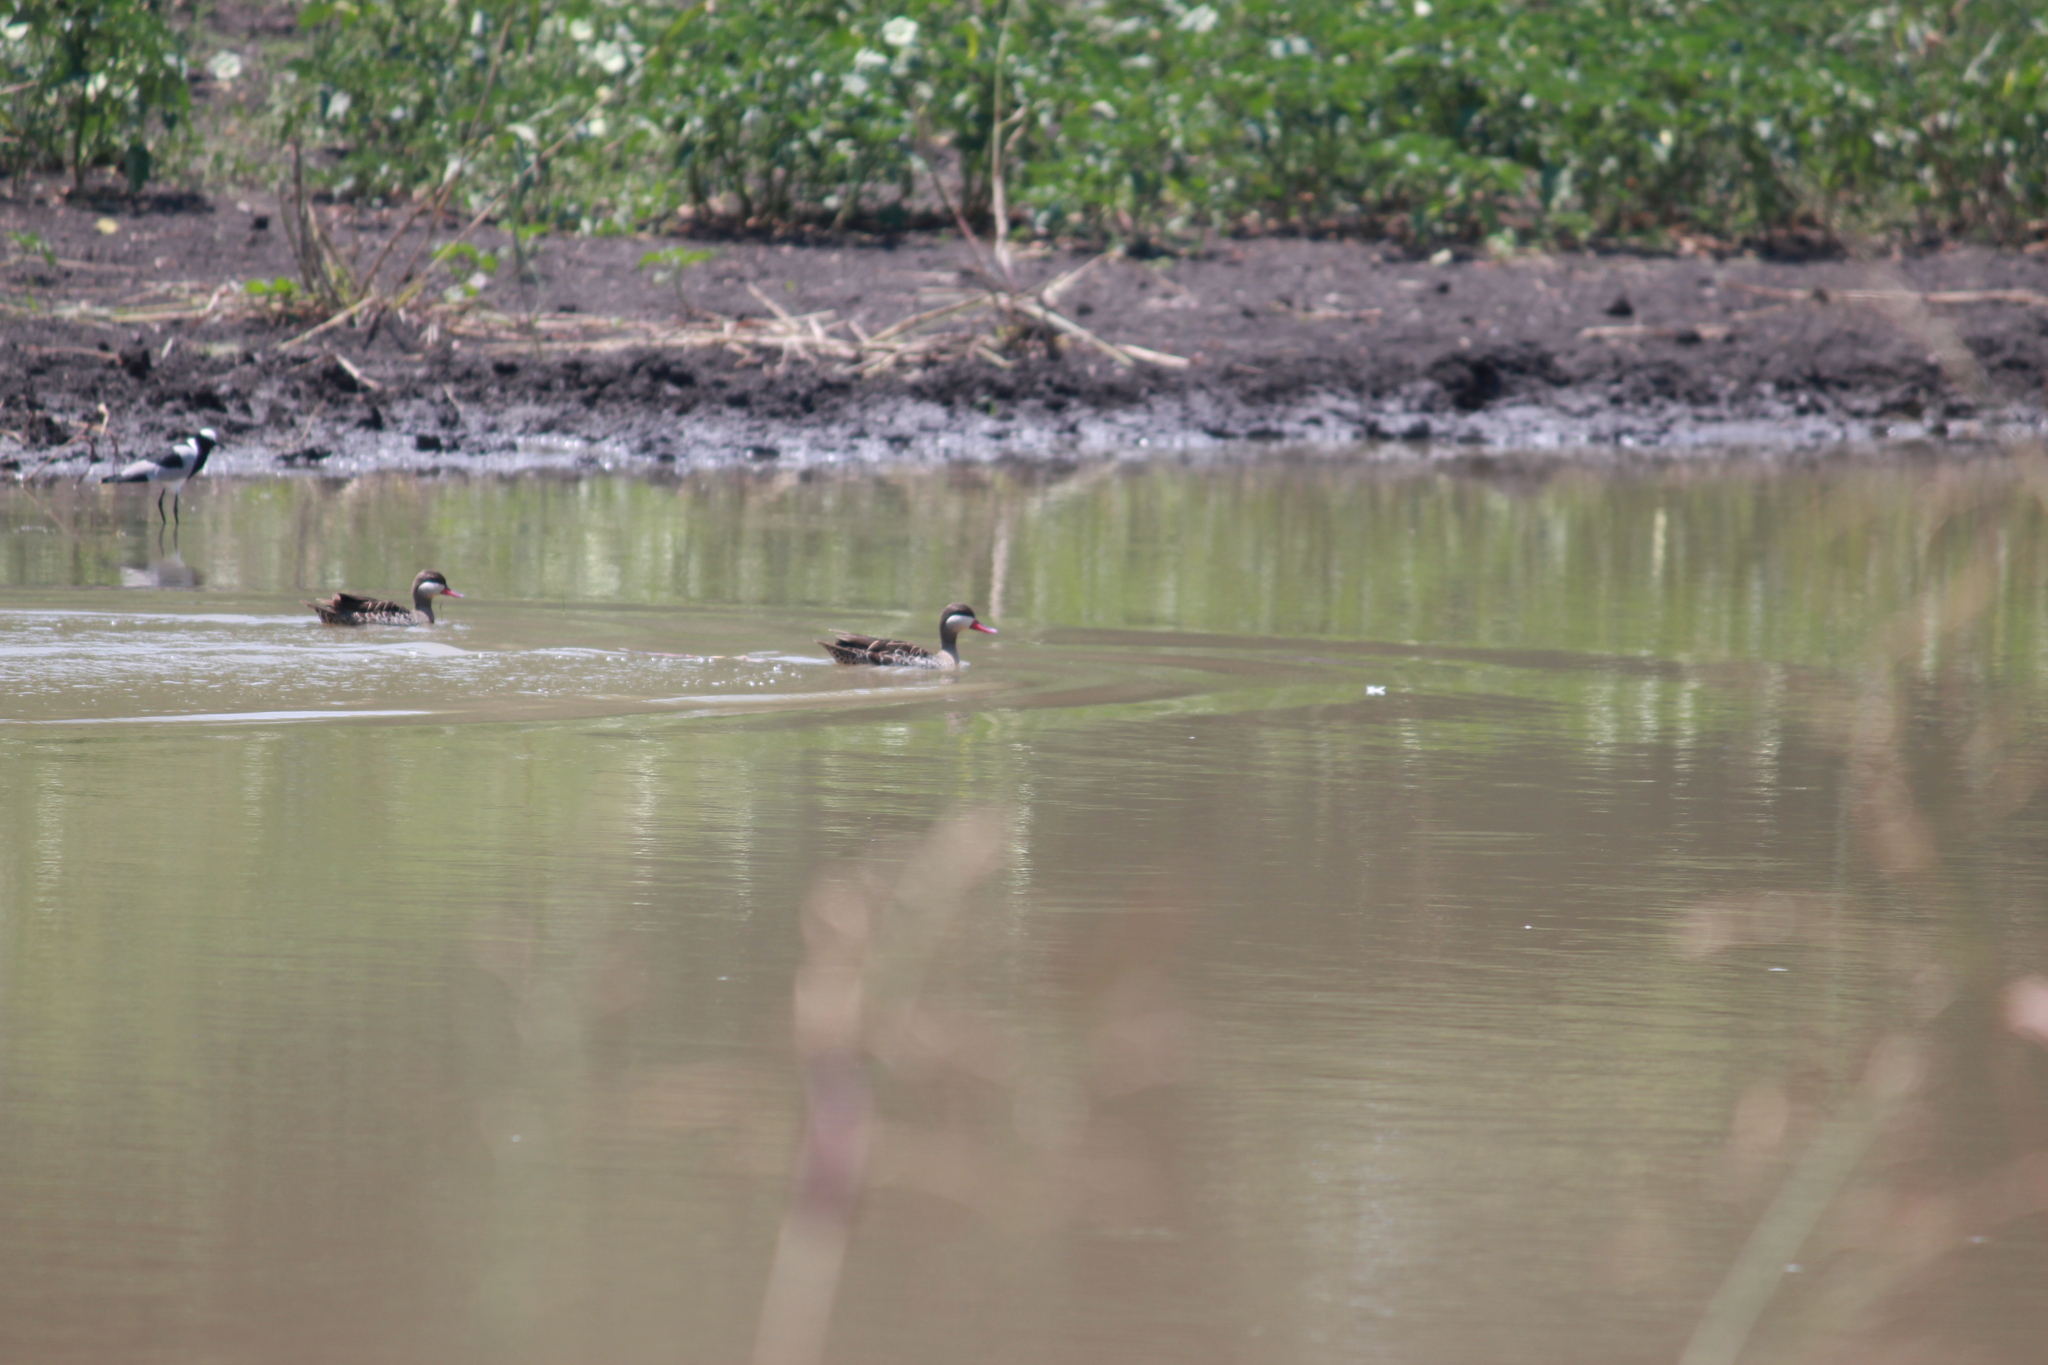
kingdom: Animalia
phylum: Chordata
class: Aves
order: Anseriformes
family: Anatidae
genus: Anas
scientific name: Anas erythrorhyncha
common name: Red-billed teal
